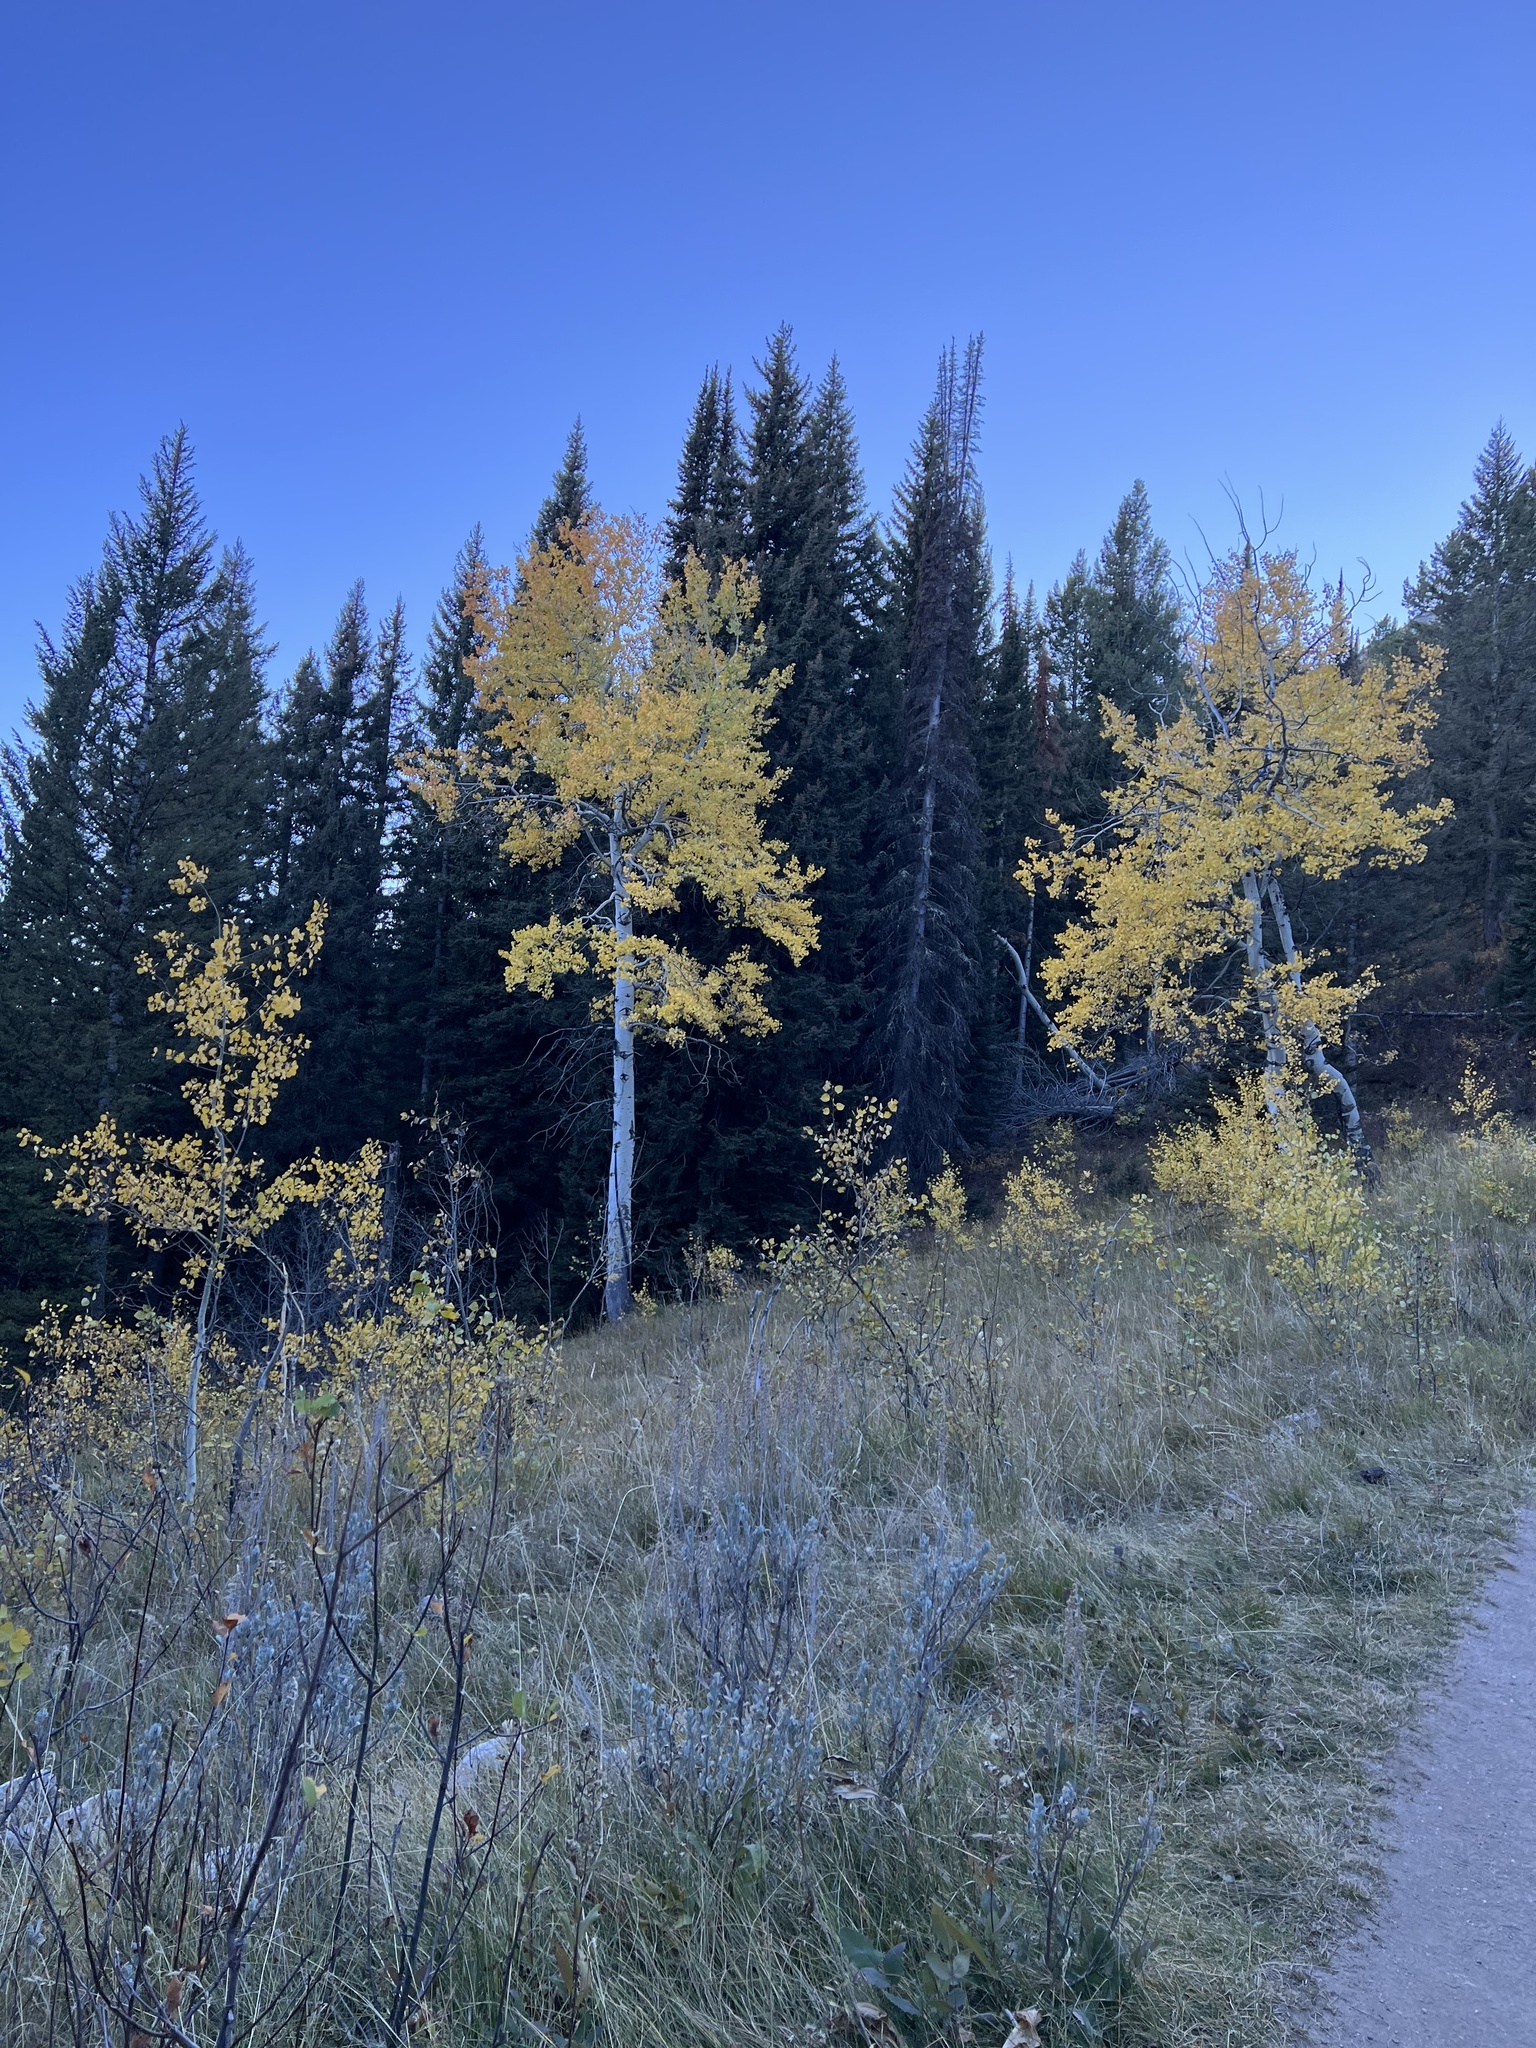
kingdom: Plantae
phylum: Tracheophyta
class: Magnoliopsida
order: Malpighiales
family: Salicaceae
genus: Populus
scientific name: Populus tremuloides
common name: Quaking aspen
